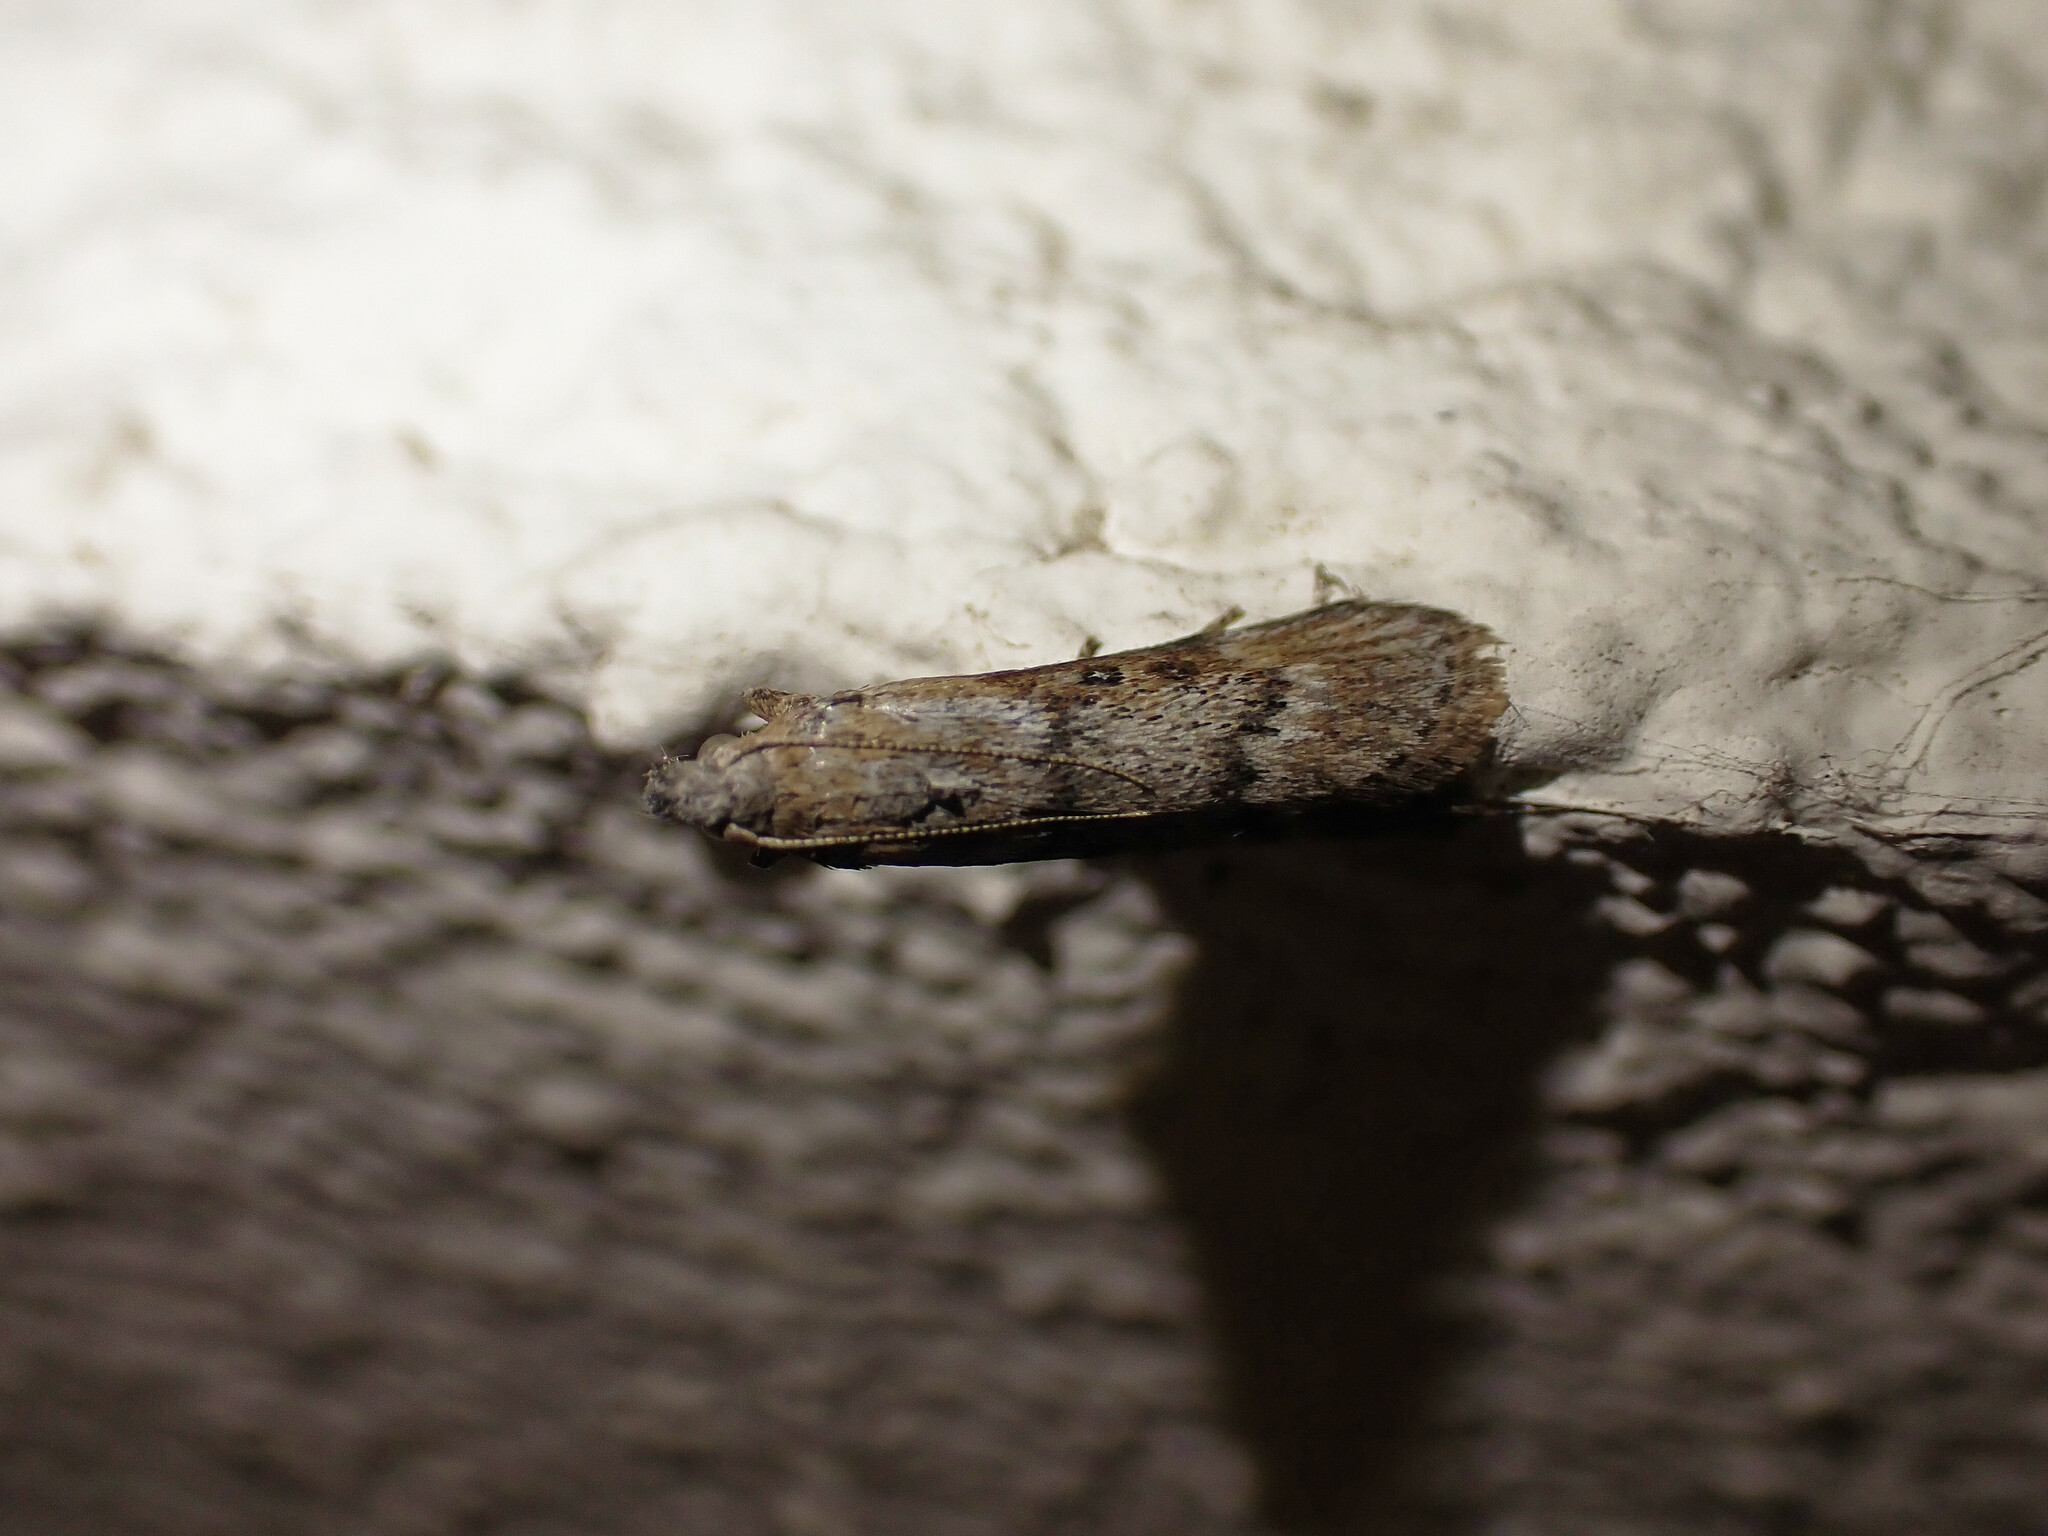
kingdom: Animalia
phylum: Arthropoda
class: Insecta
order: Lepidoptera
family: Pyralidae
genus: Lamoria
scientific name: Lamoria anella
